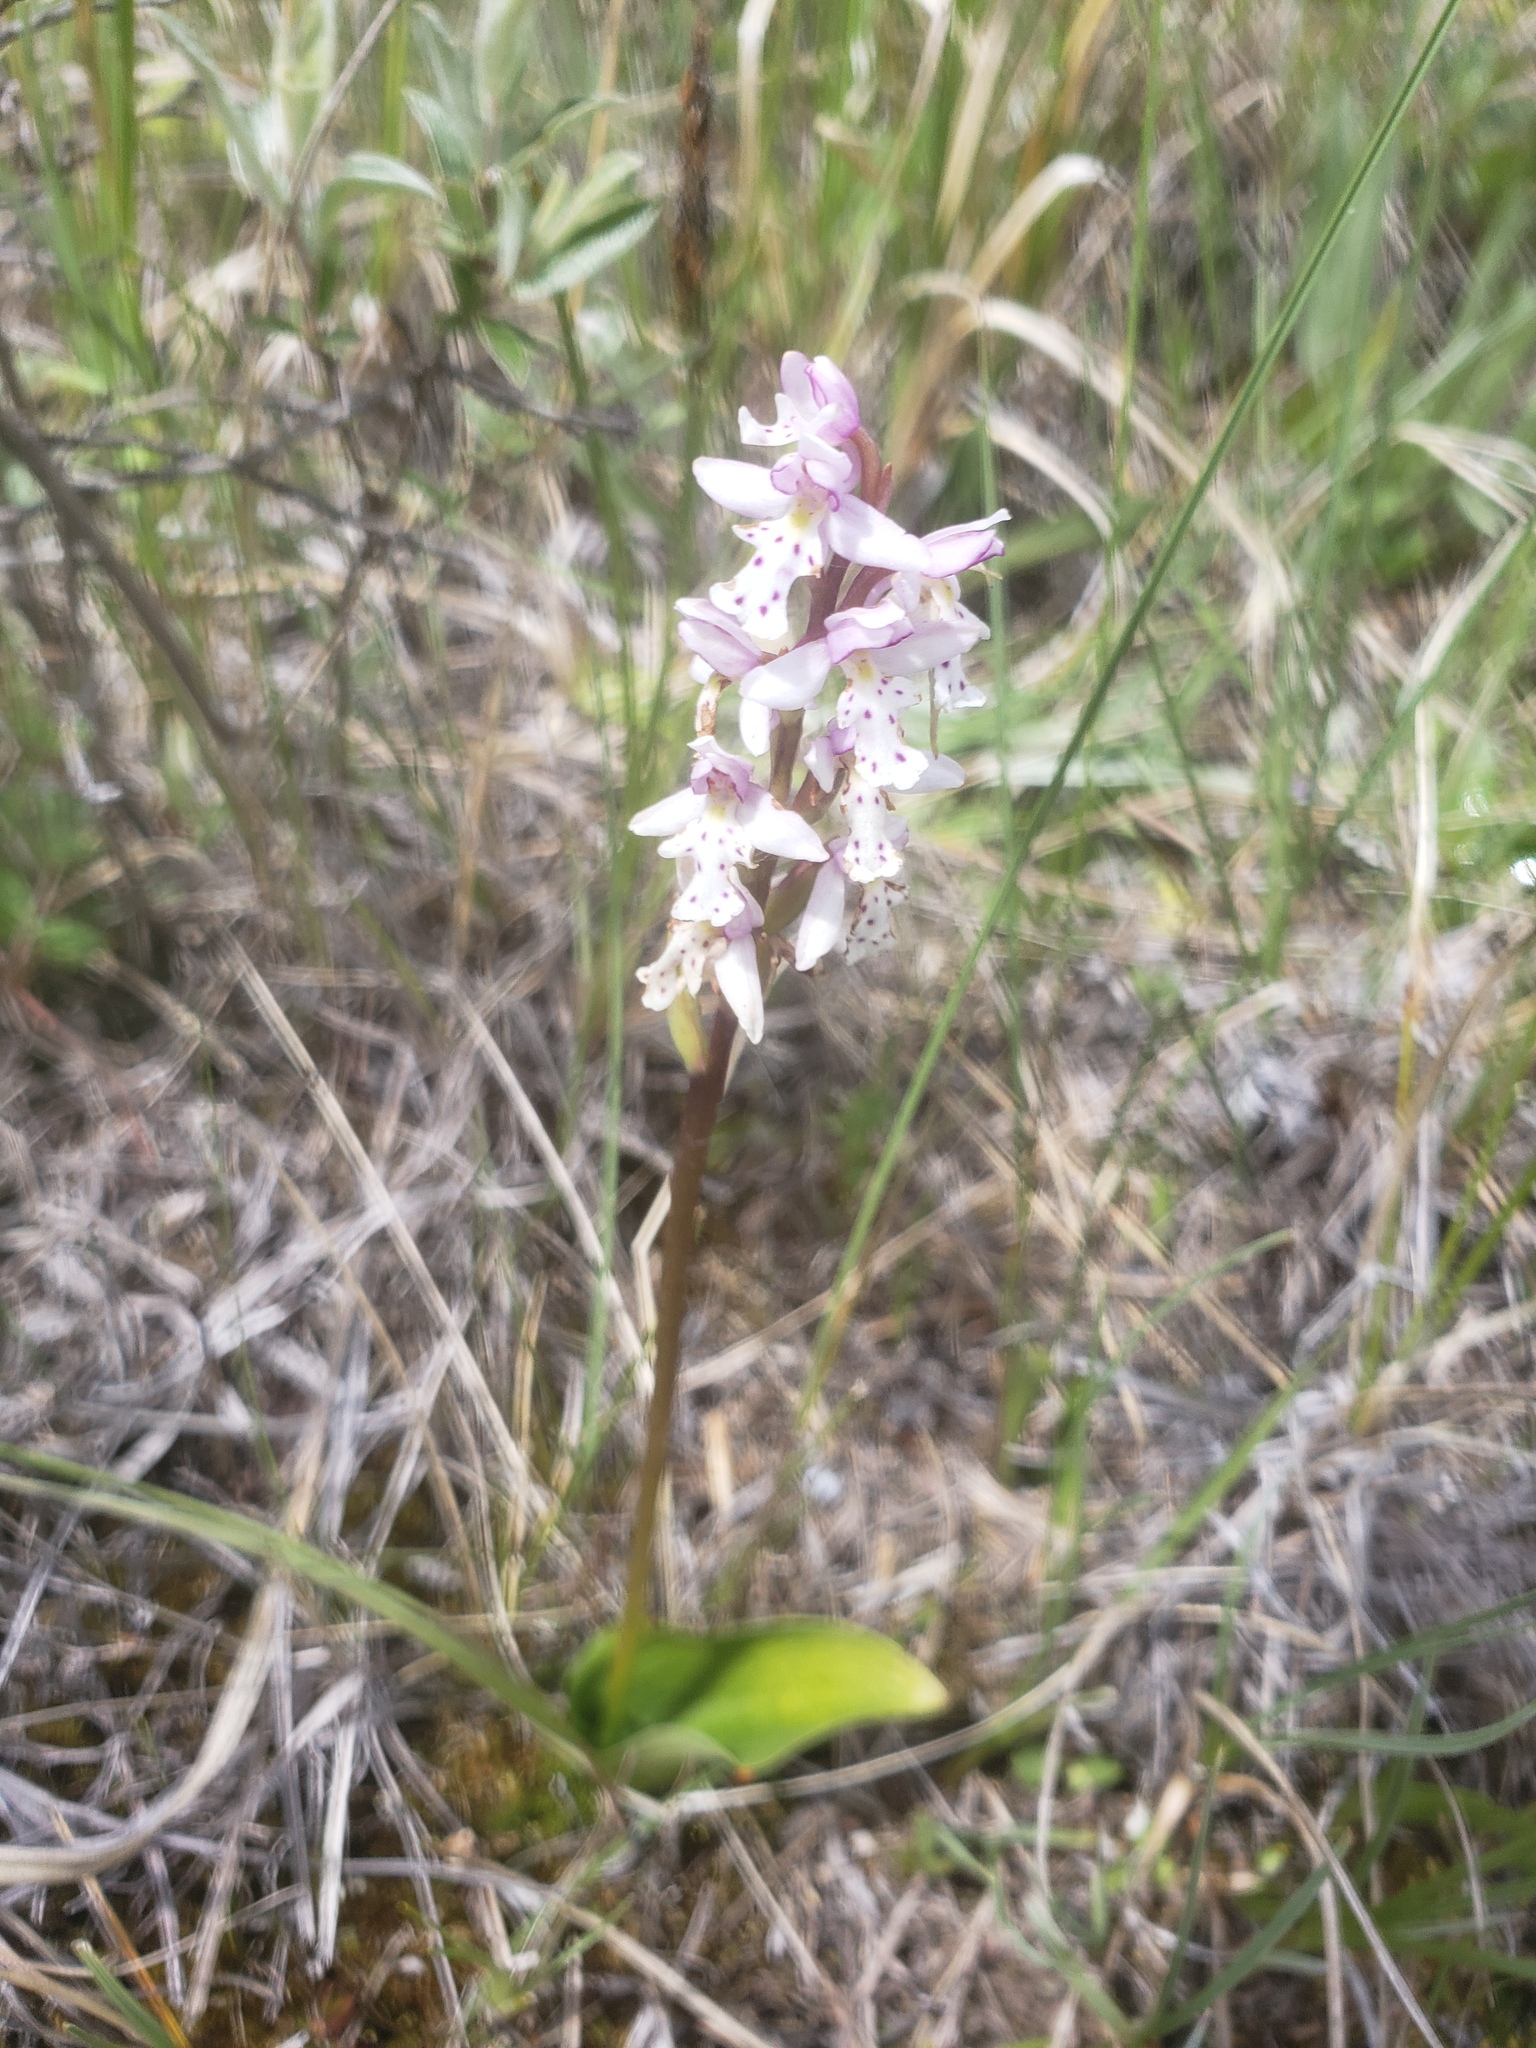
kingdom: Plantae
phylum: Tracheophyta
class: Liliopsida
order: Asparagales
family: Orchidaceae
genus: Galearis
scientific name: Galearis rotundifolia
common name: One-leaved orchis
